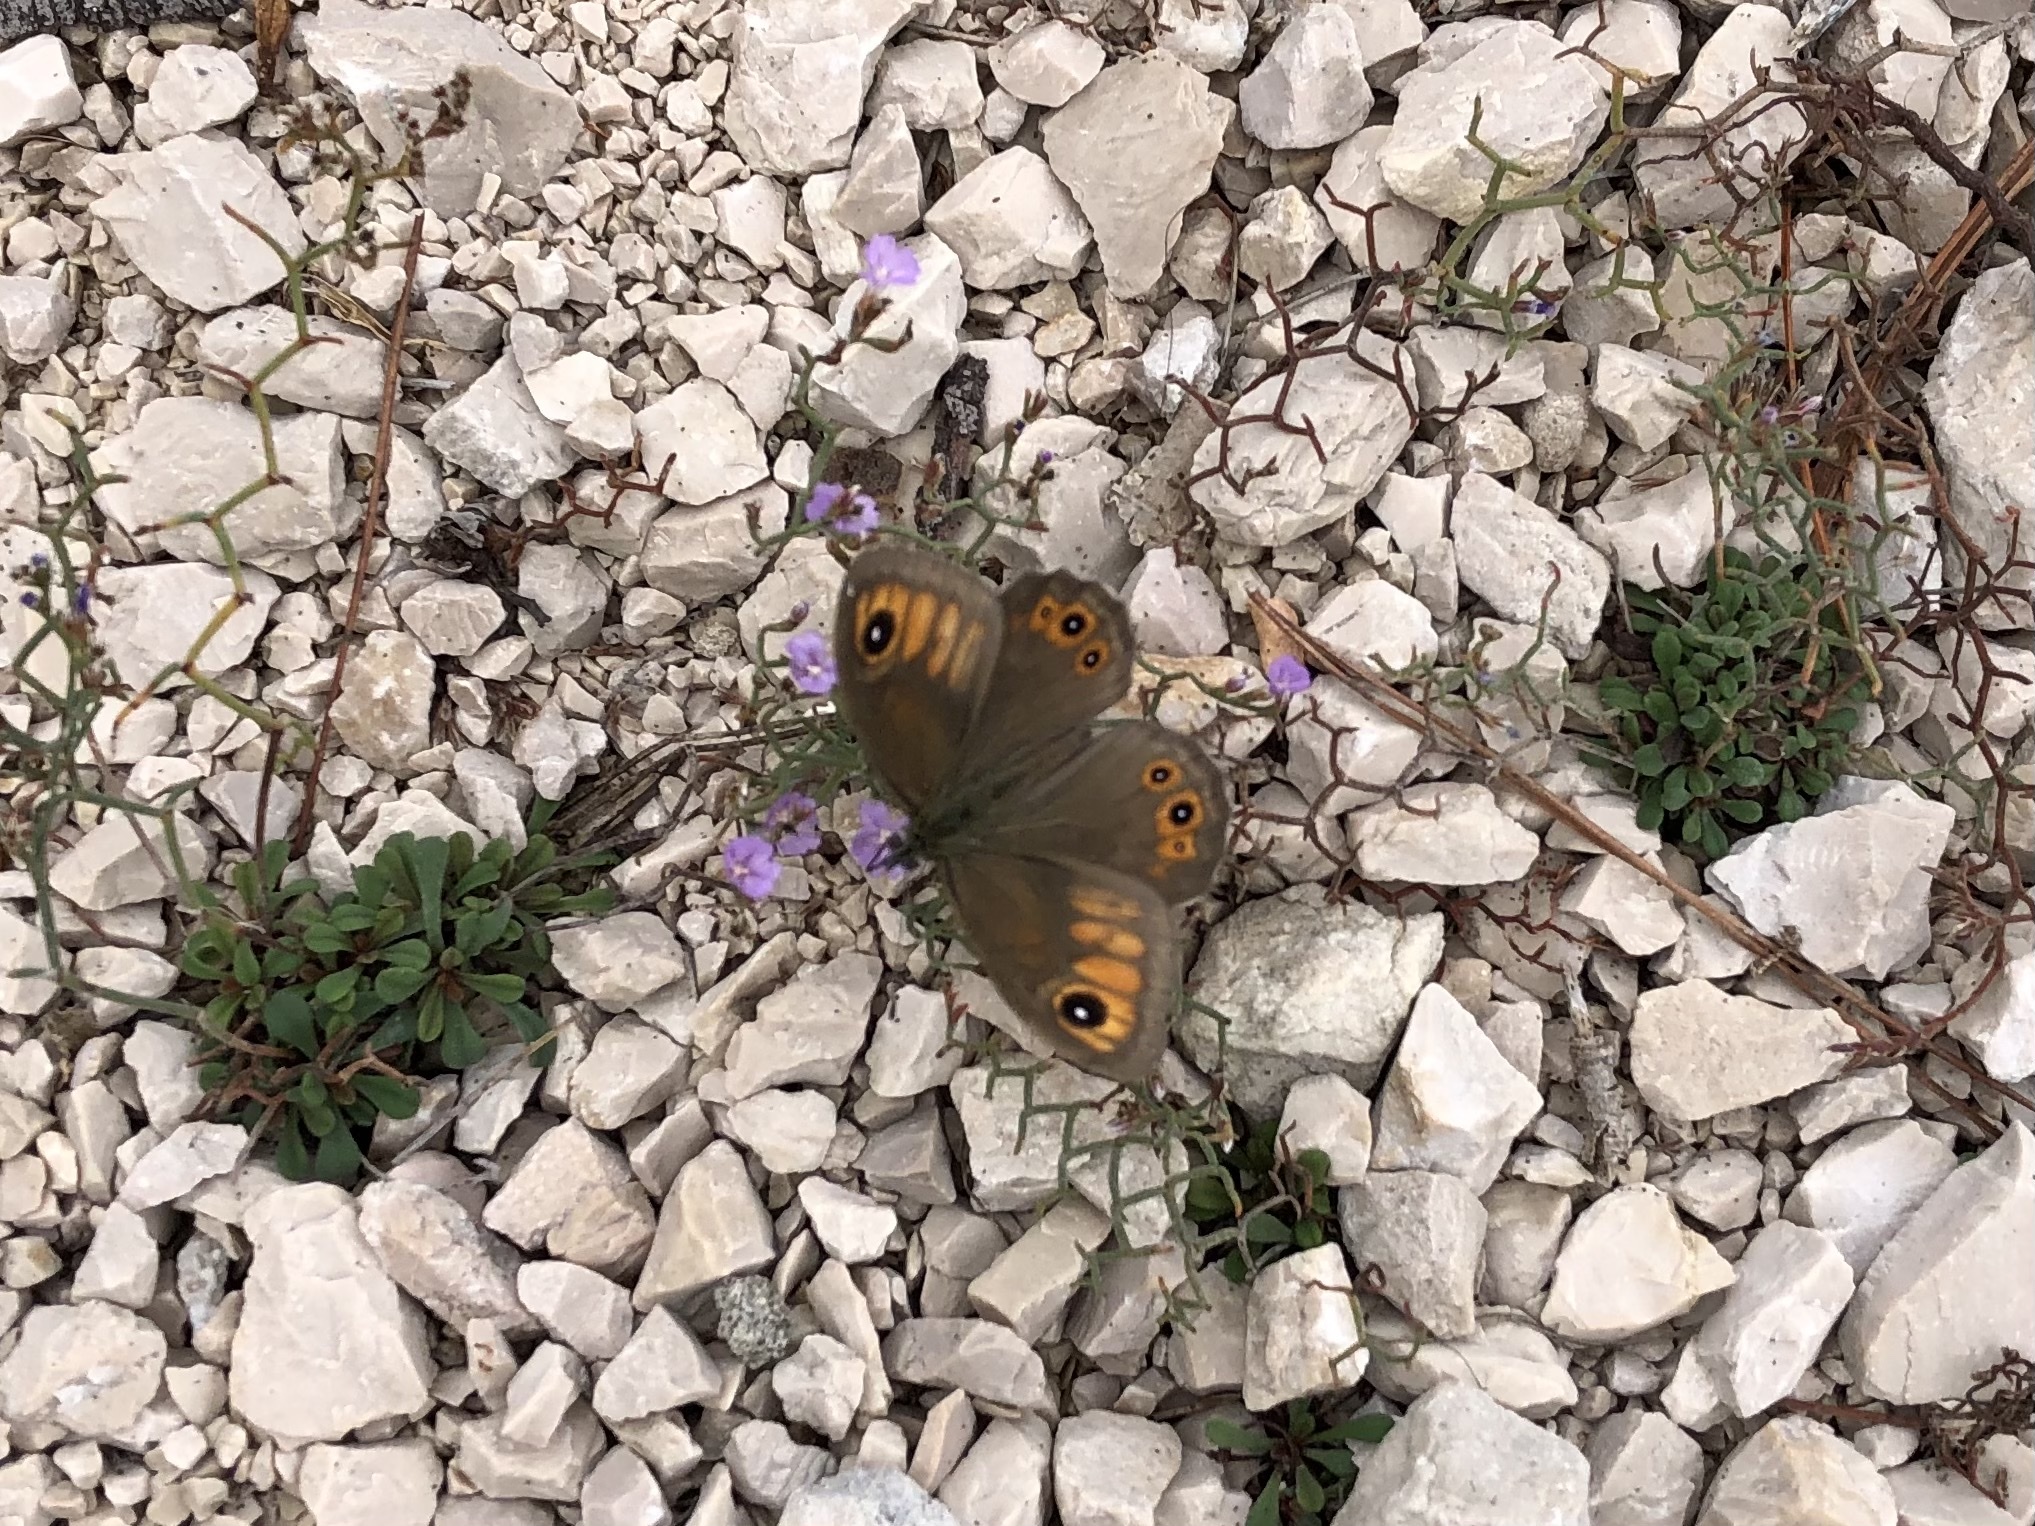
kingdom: Animalia
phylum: Arthropoda
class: Insecta
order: Lepidoptera
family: Nymphalidae
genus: Pararge
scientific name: Pararge Lasiommata maera
